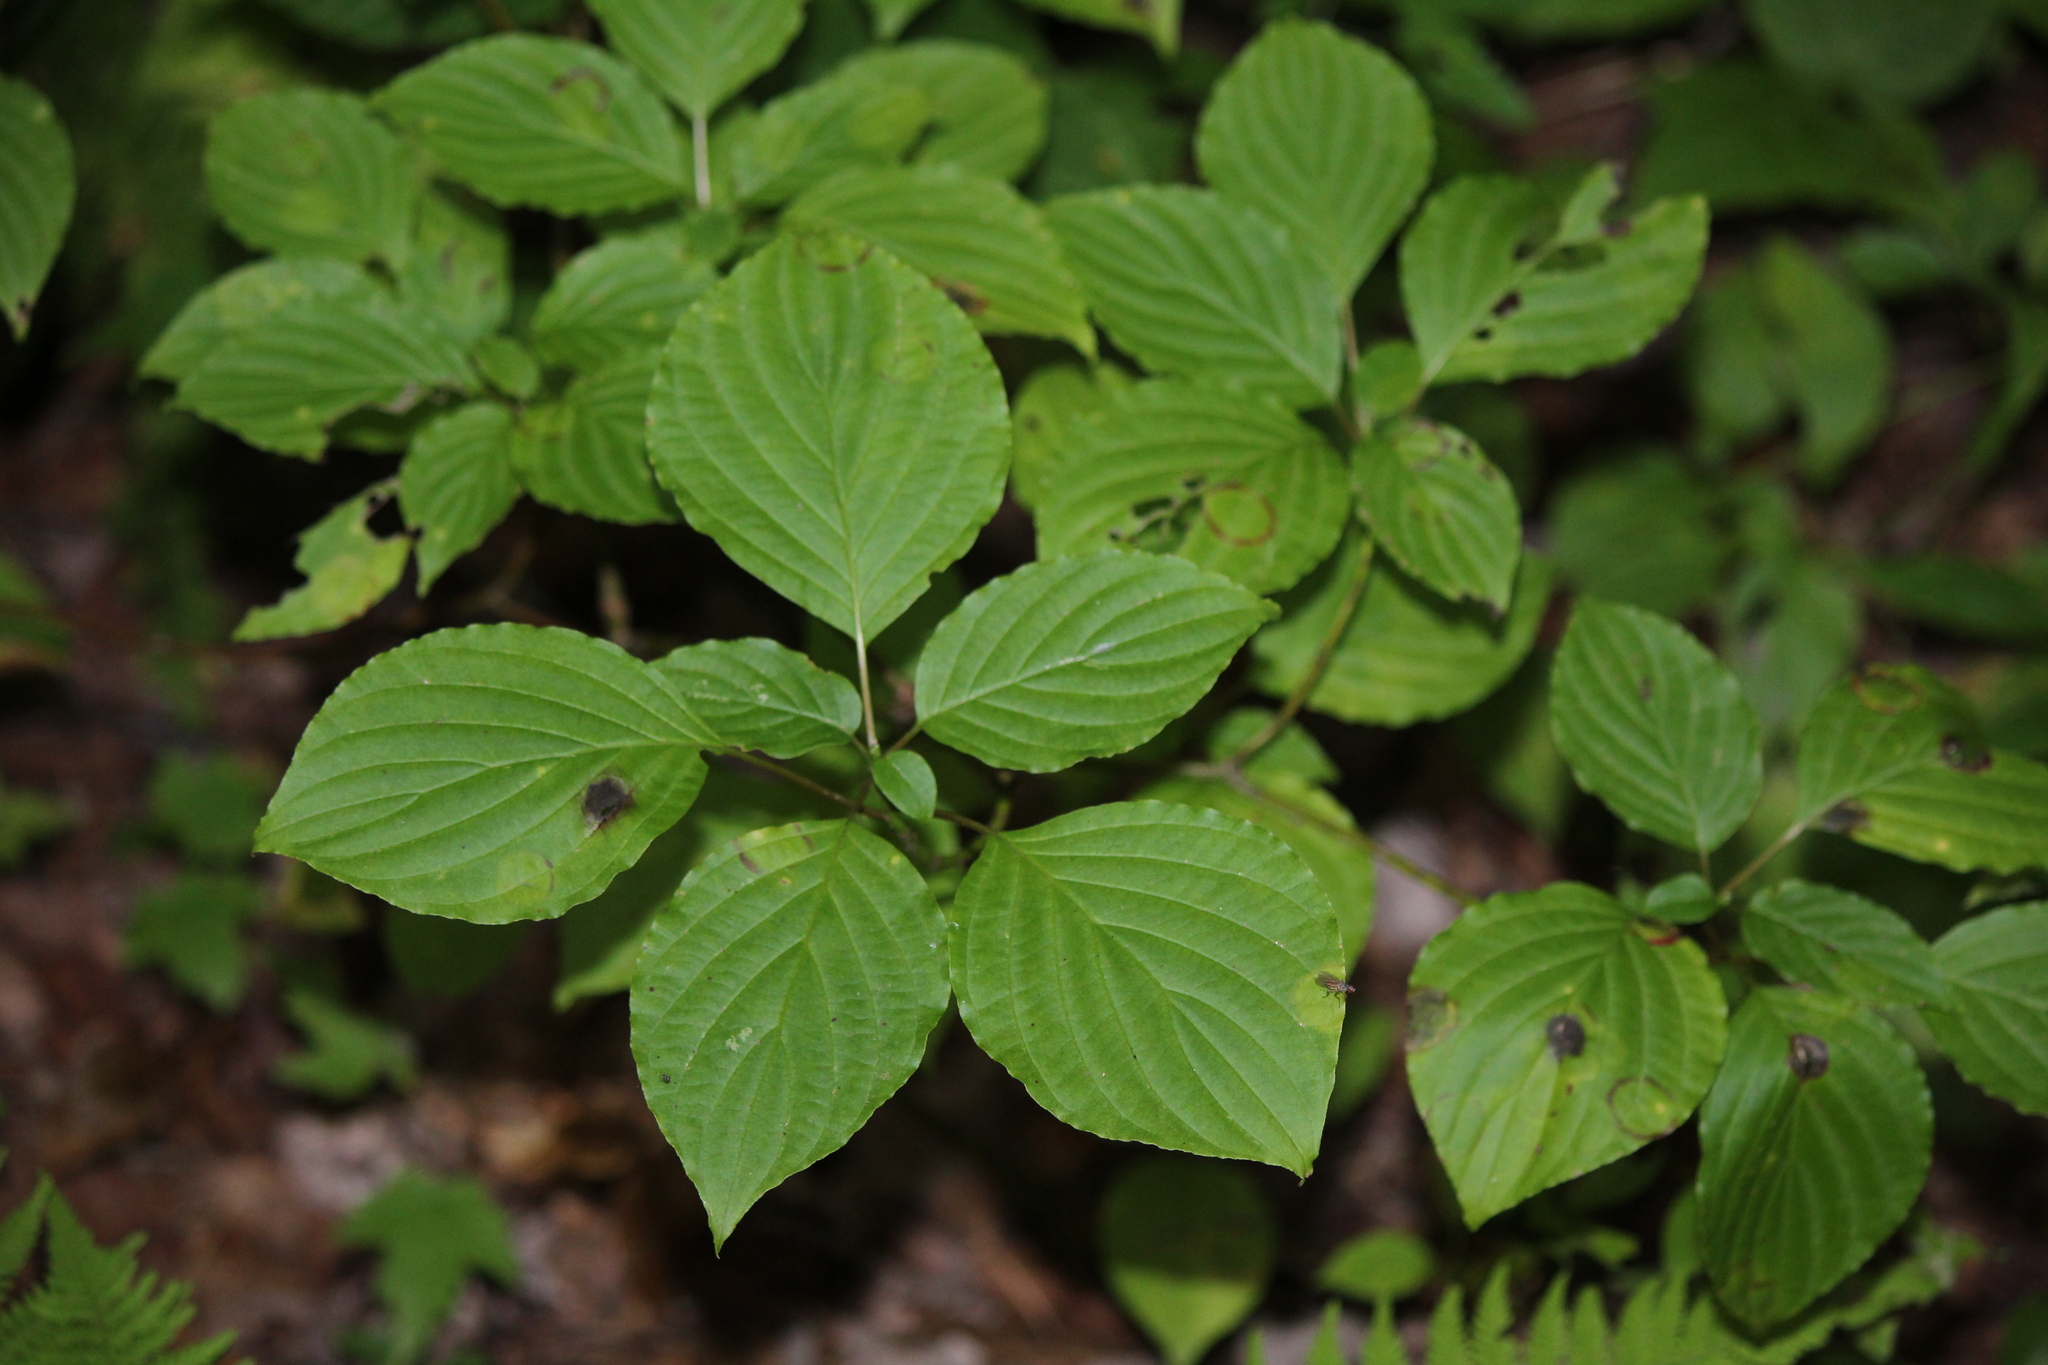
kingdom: Plantae
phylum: Tracheophyta
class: Magnoliopsida
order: Cornales
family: Cornaceae
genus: Cornus
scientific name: Cornus alternifolia
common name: Pagoda dogwood
